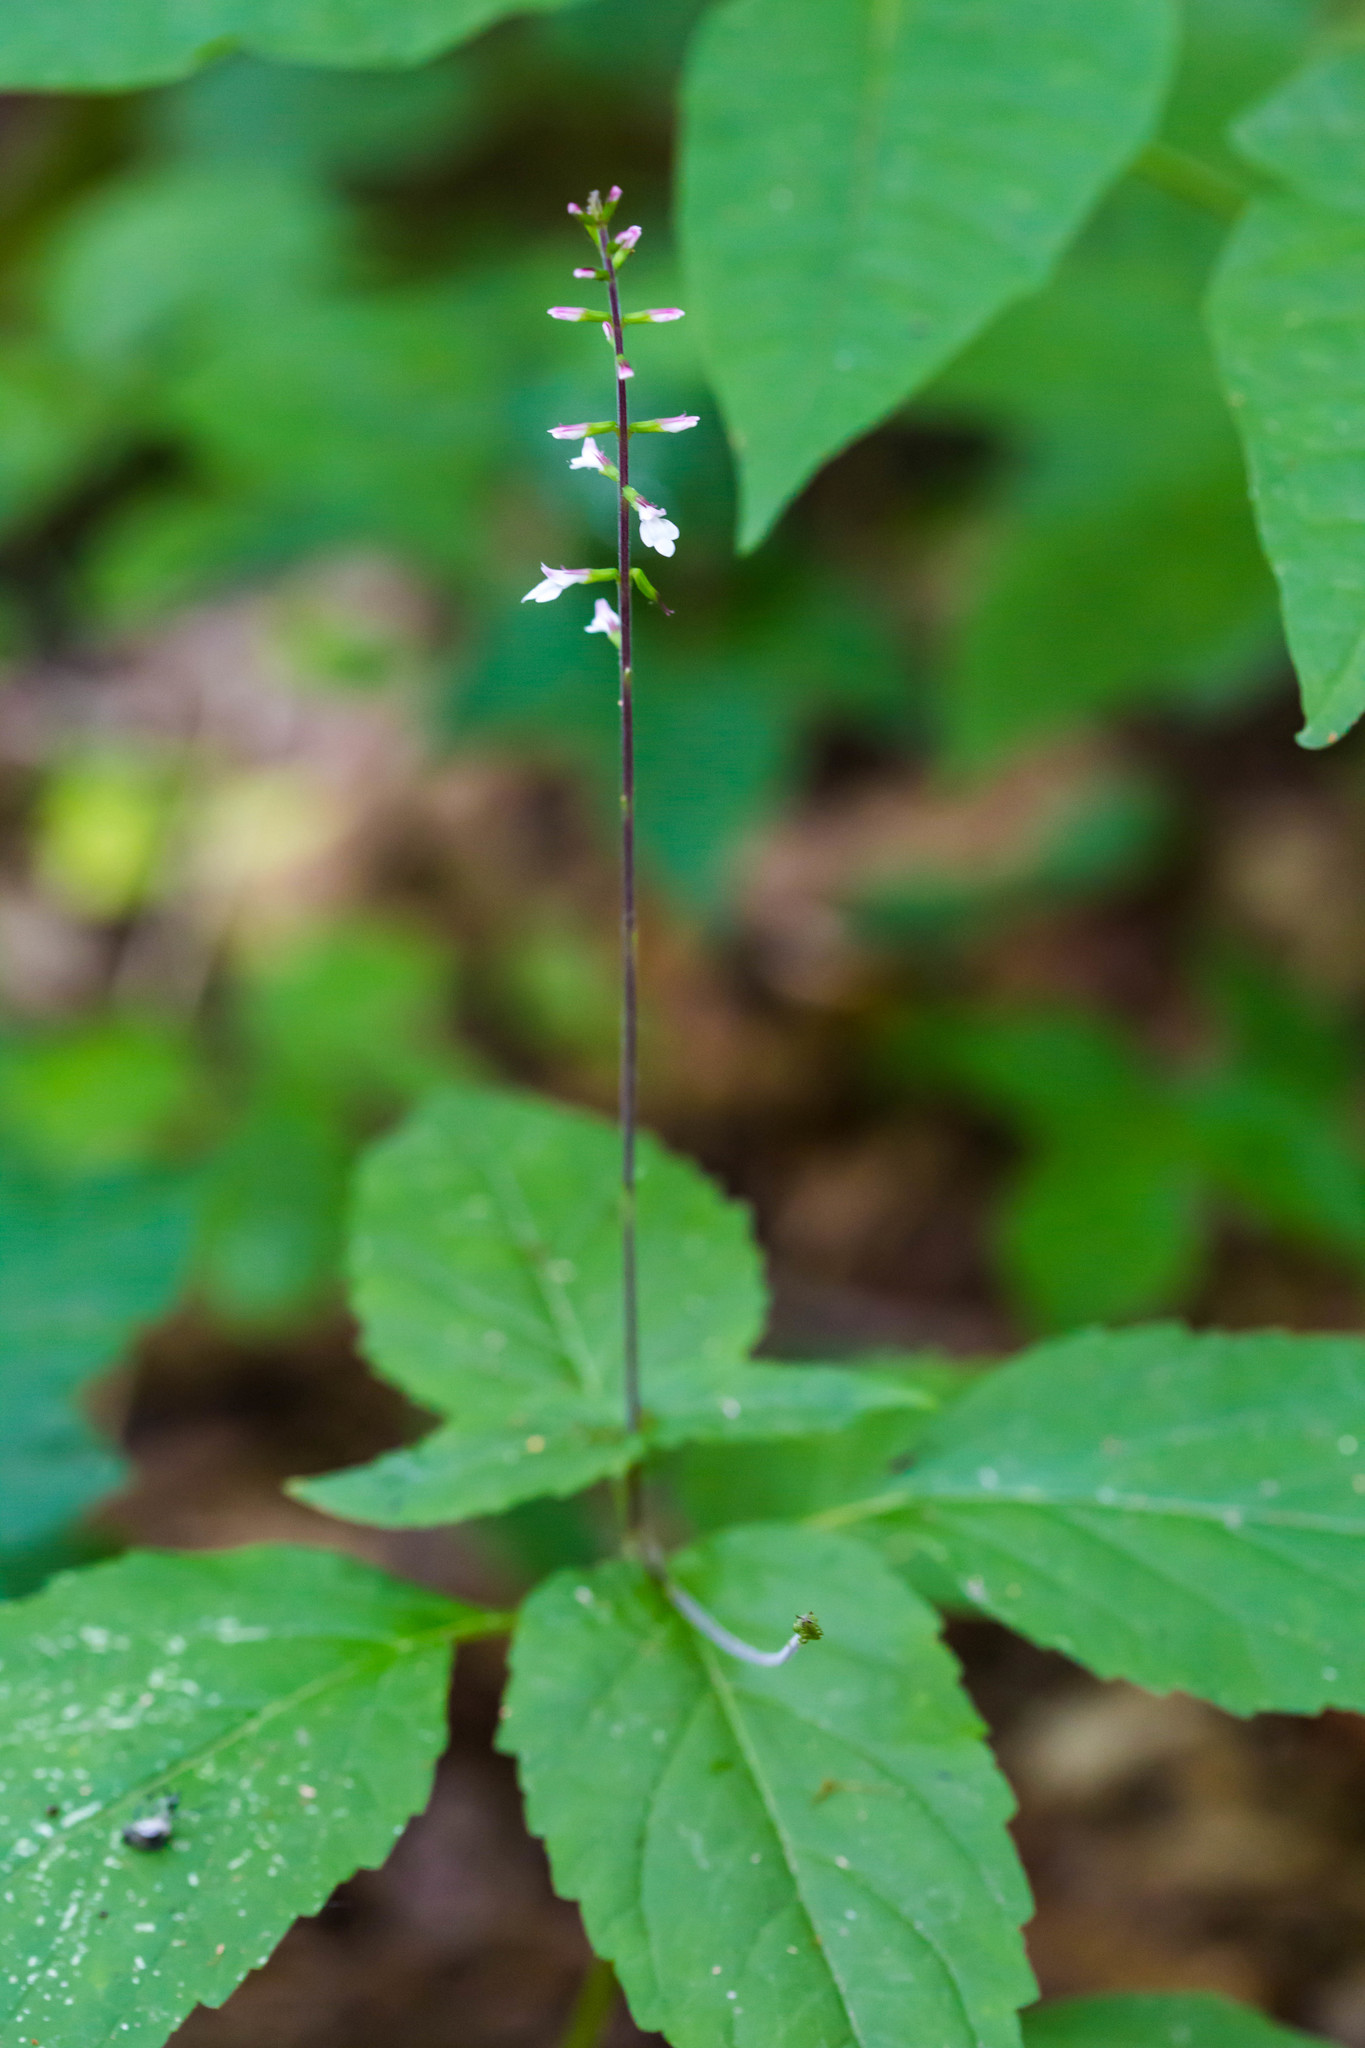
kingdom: Plantae
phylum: Tracheophyta
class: Magnoliopsida
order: Lamiales
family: Phrymaceae
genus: Phryma
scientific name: Phryma leptostachya
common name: American lopseed
